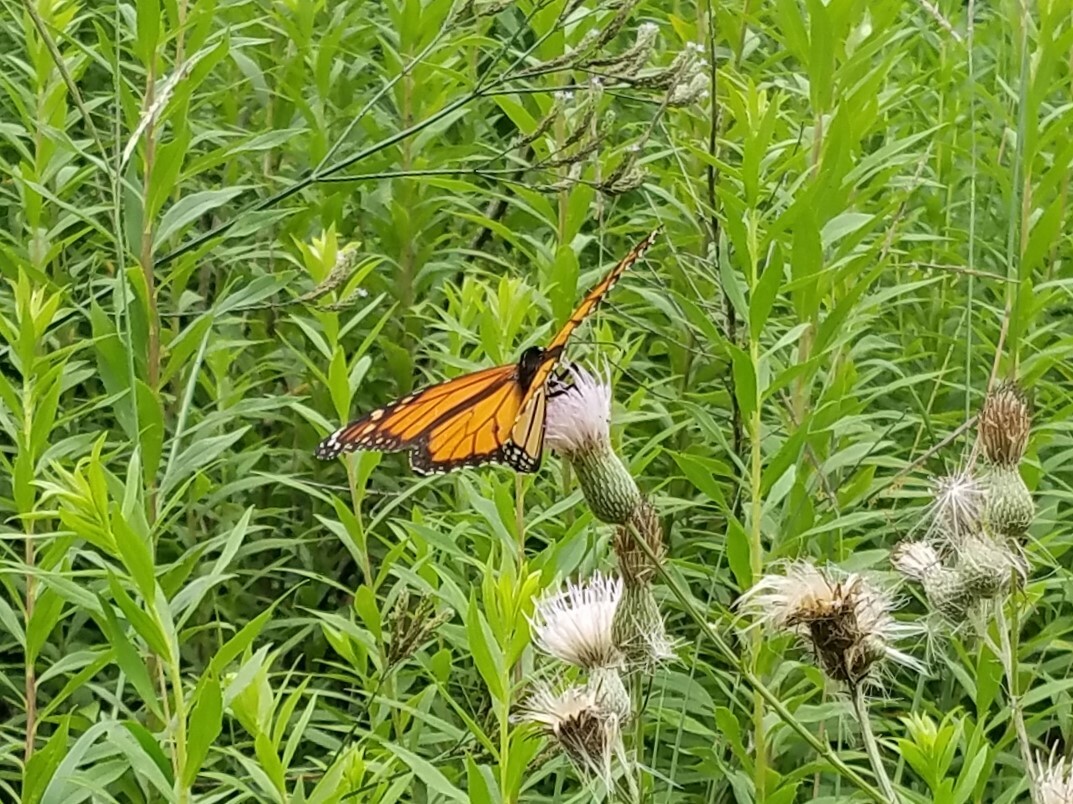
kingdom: Animalia
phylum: Arthropoda
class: Insecta
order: Lepidoptera
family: Nymphalidae
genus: Danaus
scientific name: Danaus plexippus
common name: Monarch
